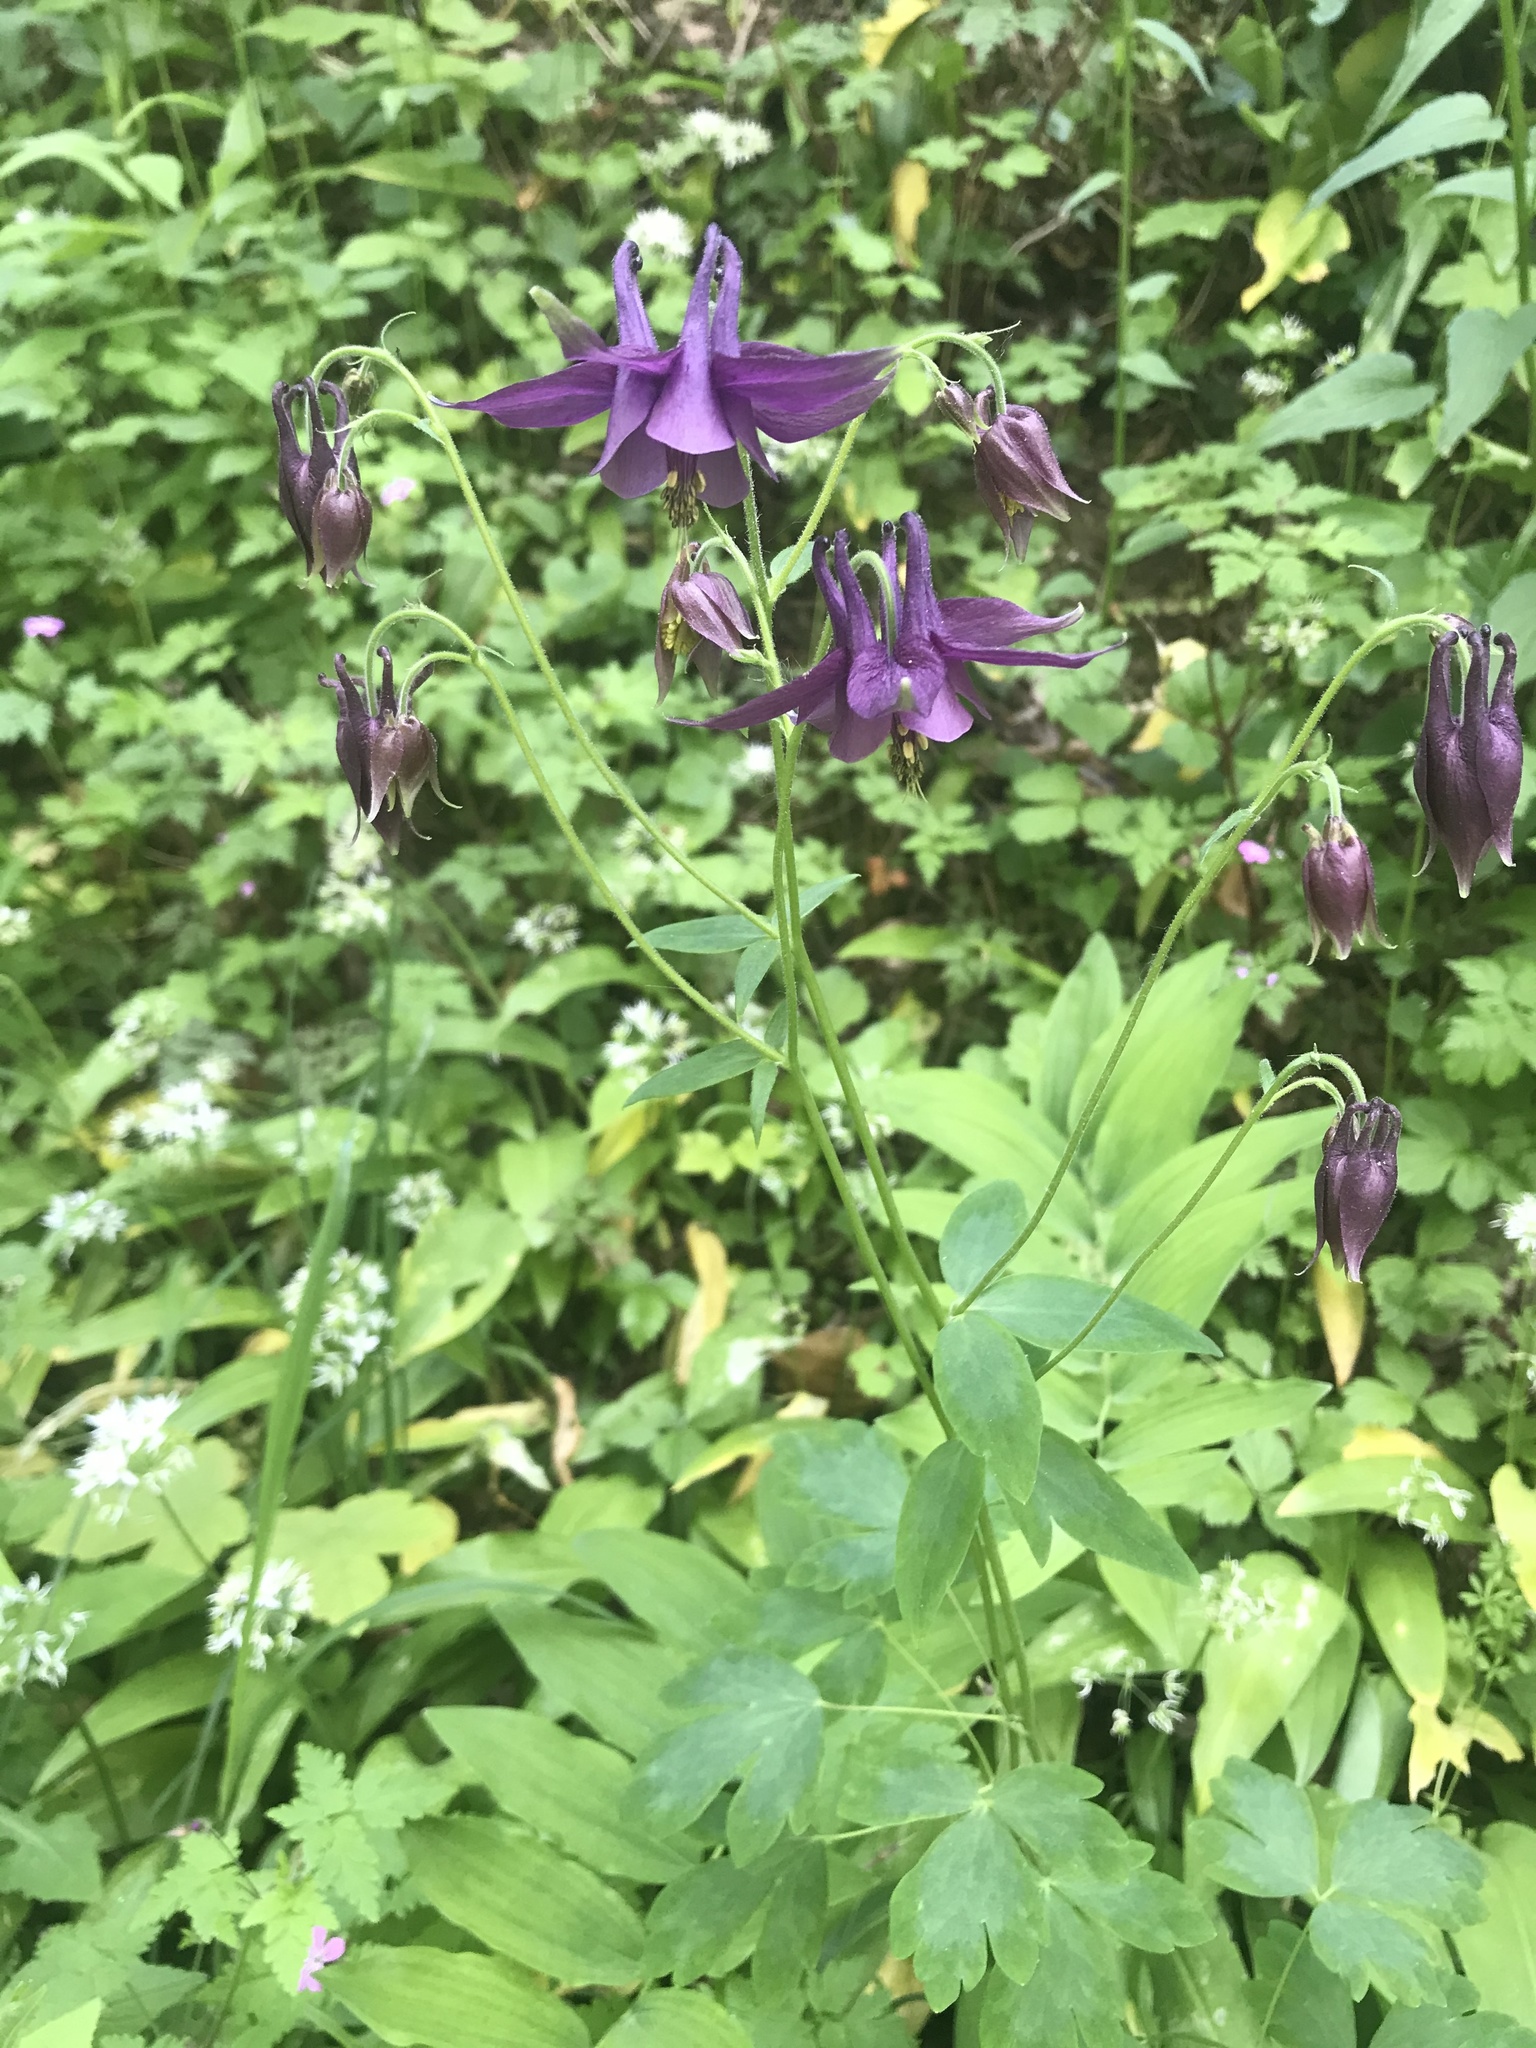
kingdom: Plantae
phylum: Tracheophyta
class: Magnoliopsida
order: Ranunculales
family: Ranunculaceae
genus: Aquilegia
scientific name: Aquilegia atrata
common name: Dark columbine
